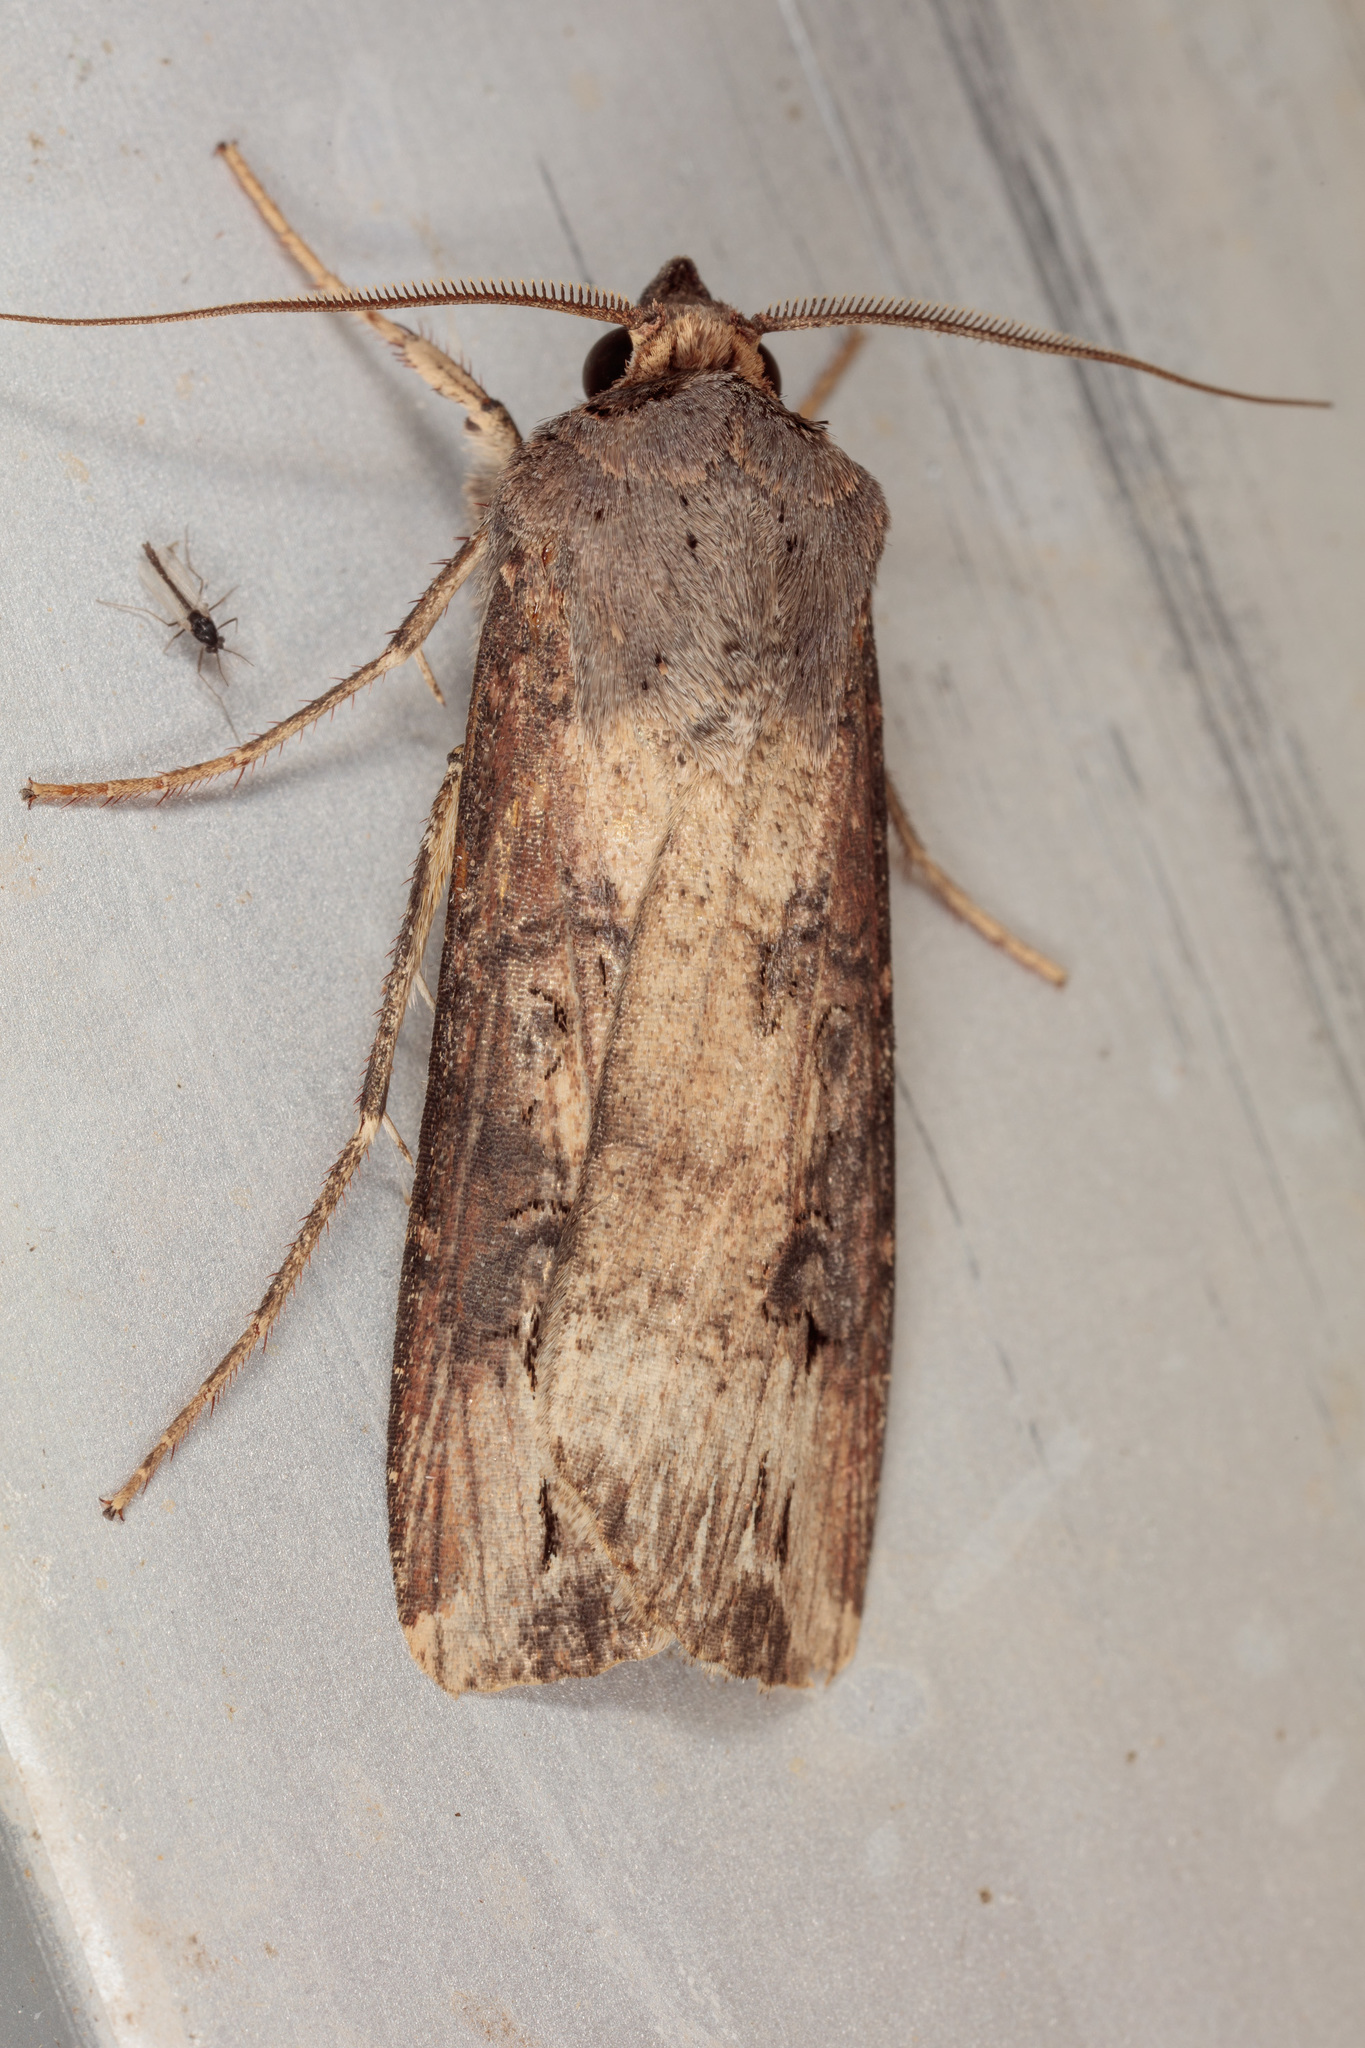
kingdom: Animalia
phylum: Arthropoda
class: Insecta
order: Lepidoptera
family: Noctuidae
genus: Agrotis
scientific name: Agrotis ipsilon
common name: Dark sword-grass
